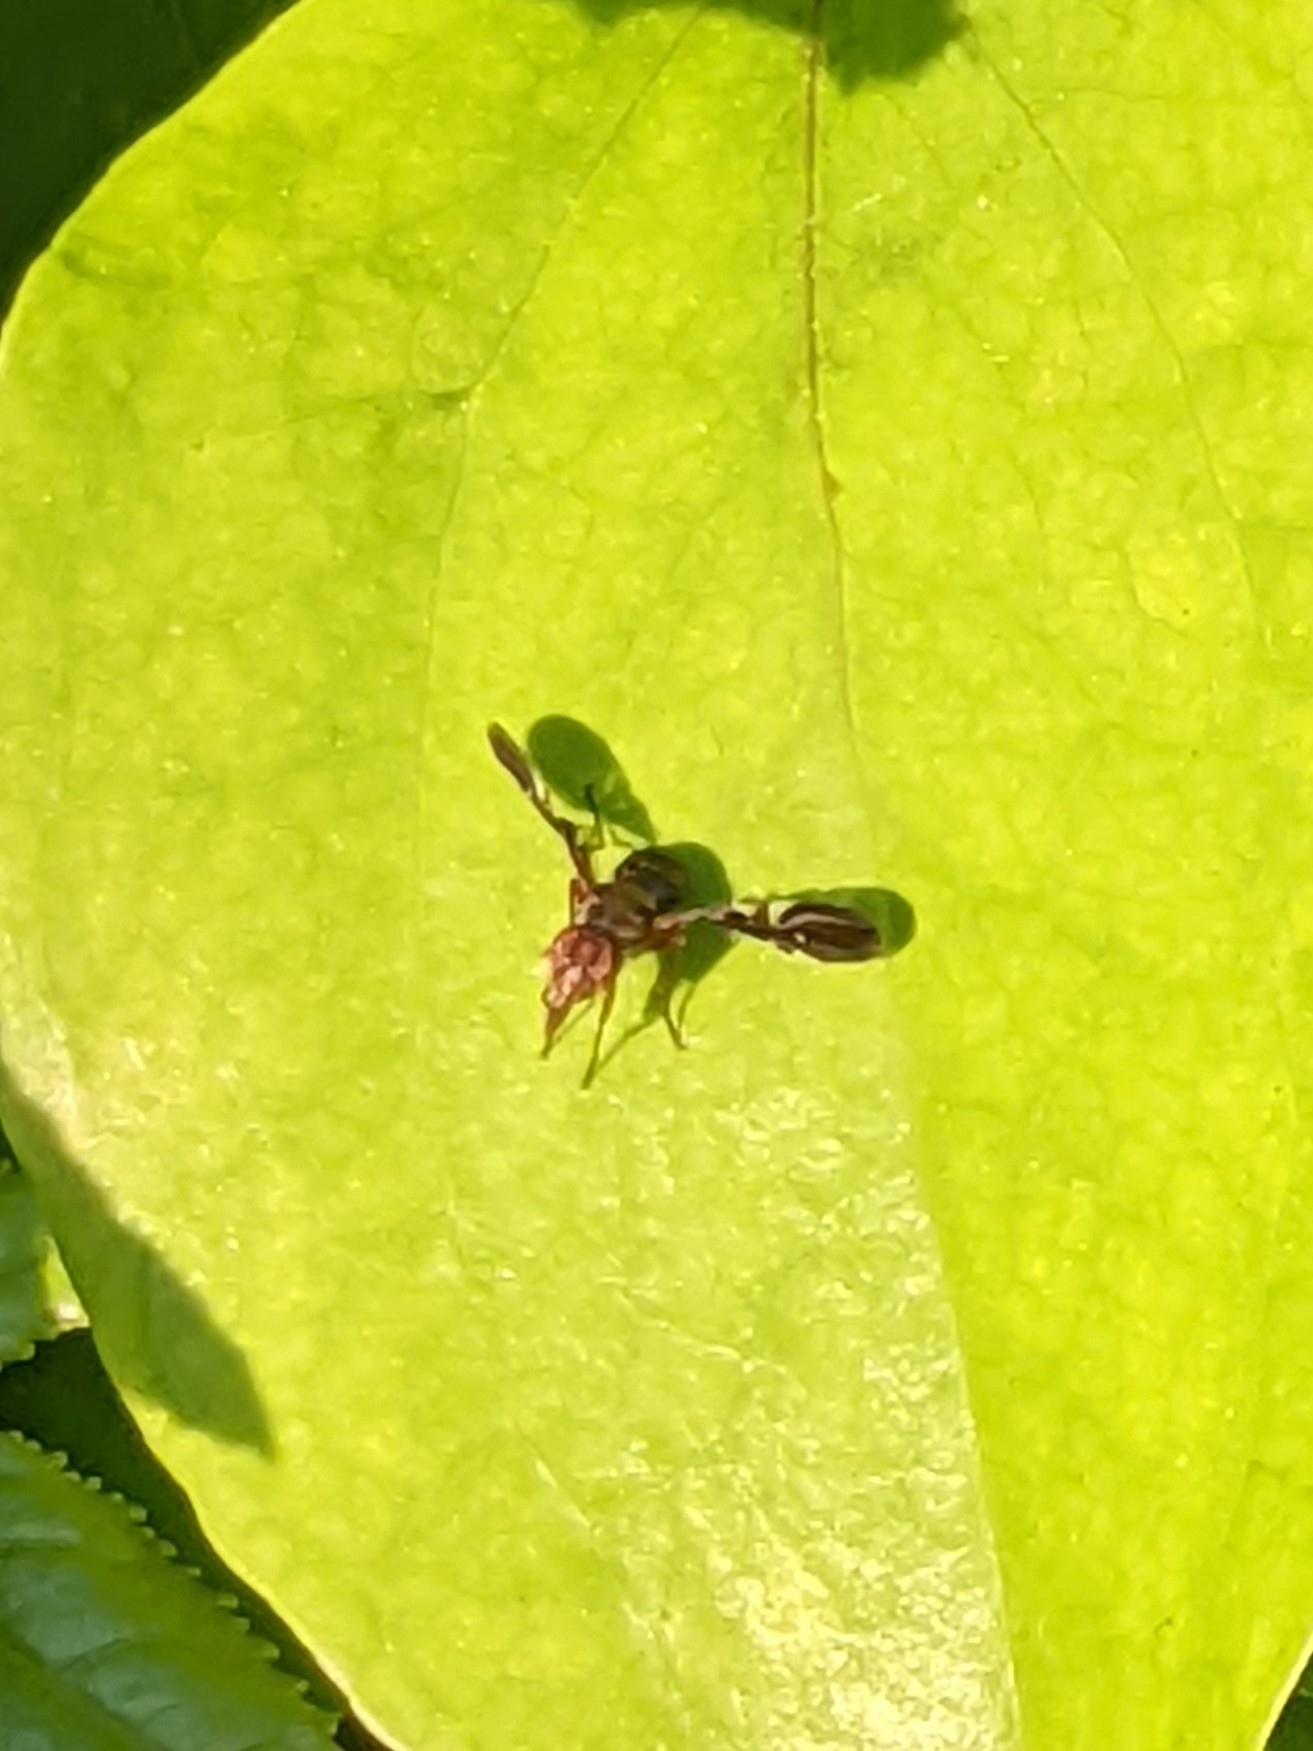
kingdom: Animalia
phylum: Arthropoda
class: Insecta
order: Diptera
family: Ulidiidae
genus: Delphinia
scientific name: Delphinia picta
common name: Common picture-winged fly
